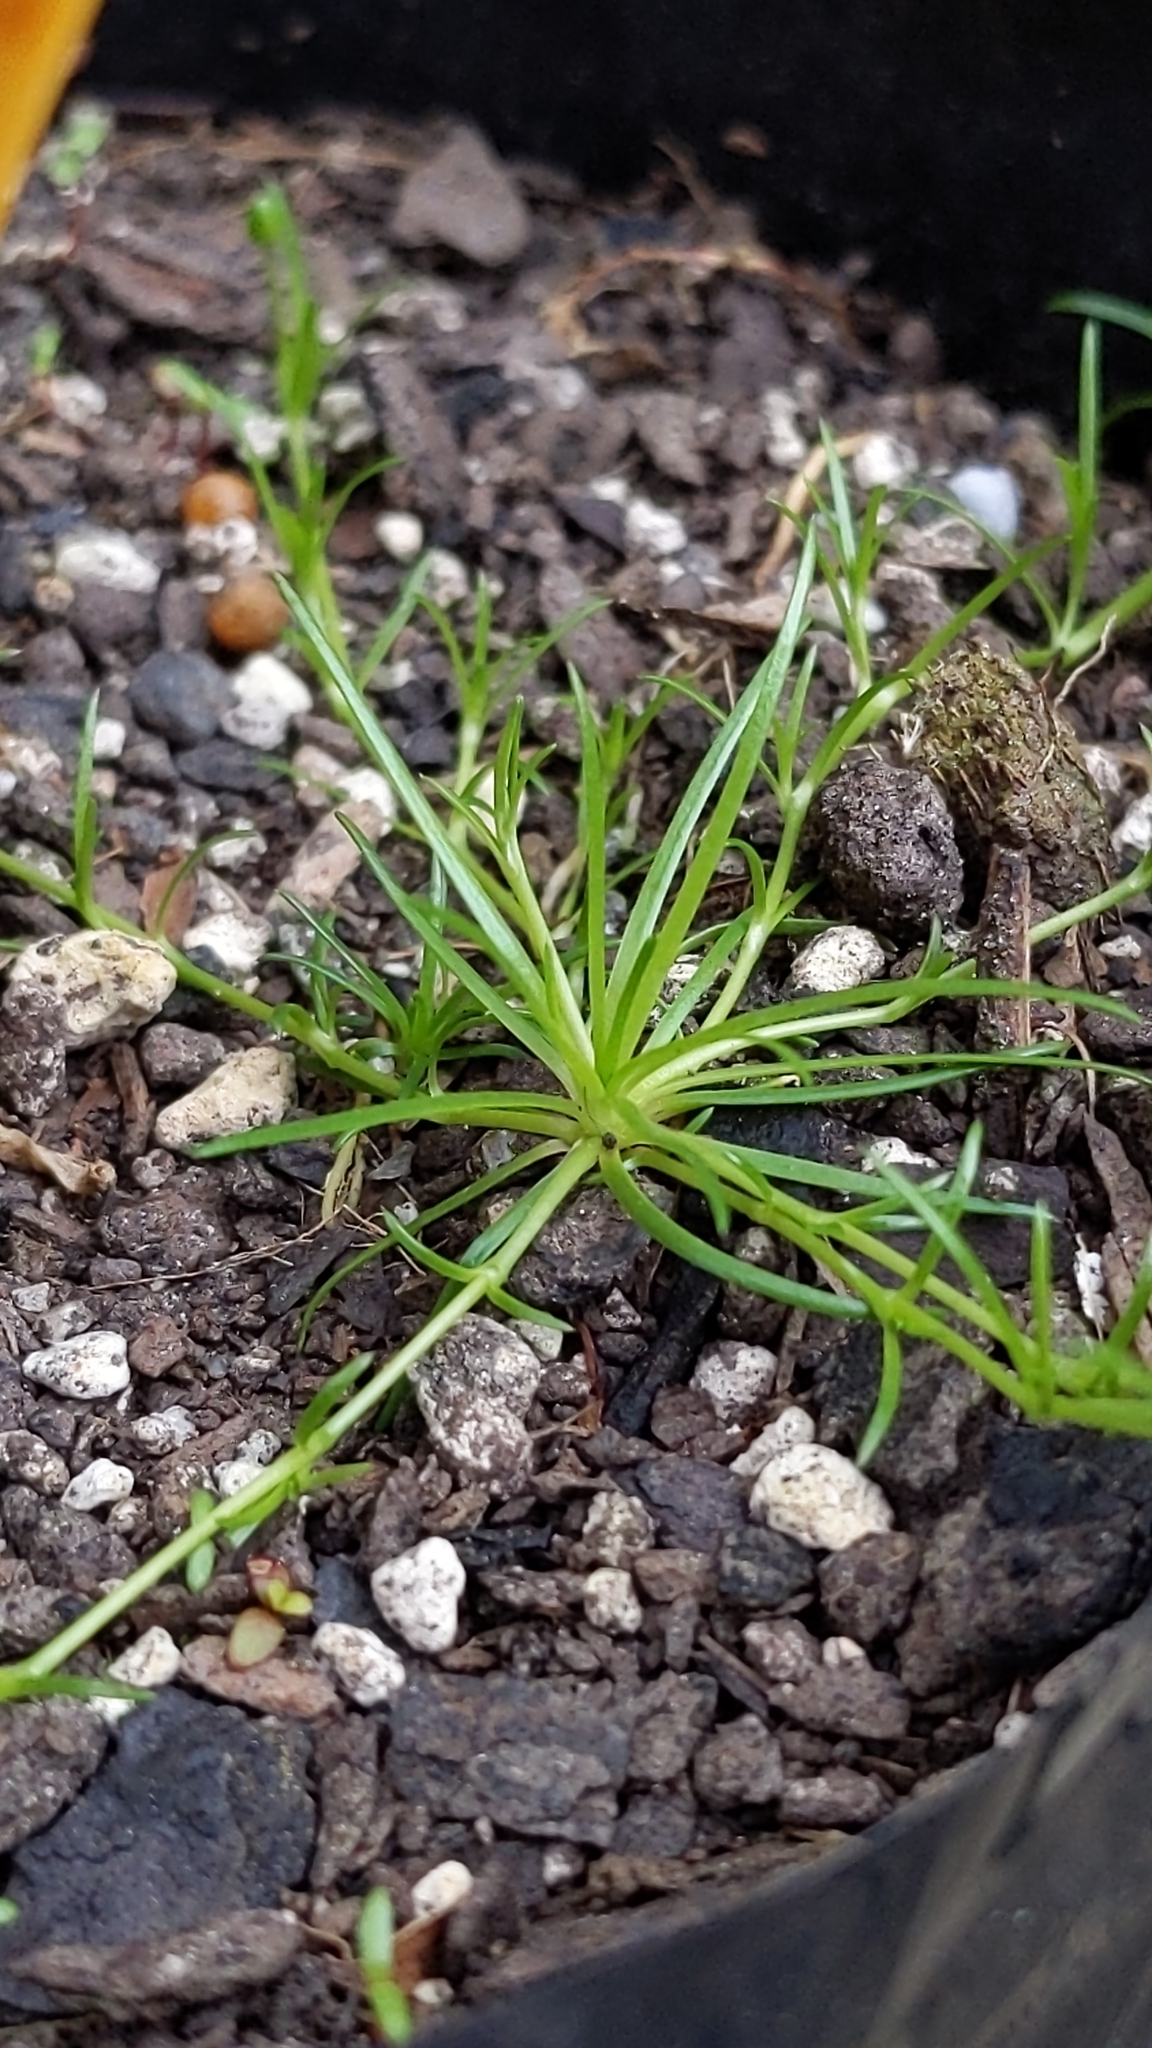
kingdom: Plantae
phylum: Tracheophyta
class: Magnoliopsida
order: Caryophyllales
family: Caryophyllaceae
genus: Sagina
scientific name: Sagina procumbens
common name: Procumbent pearlwort
